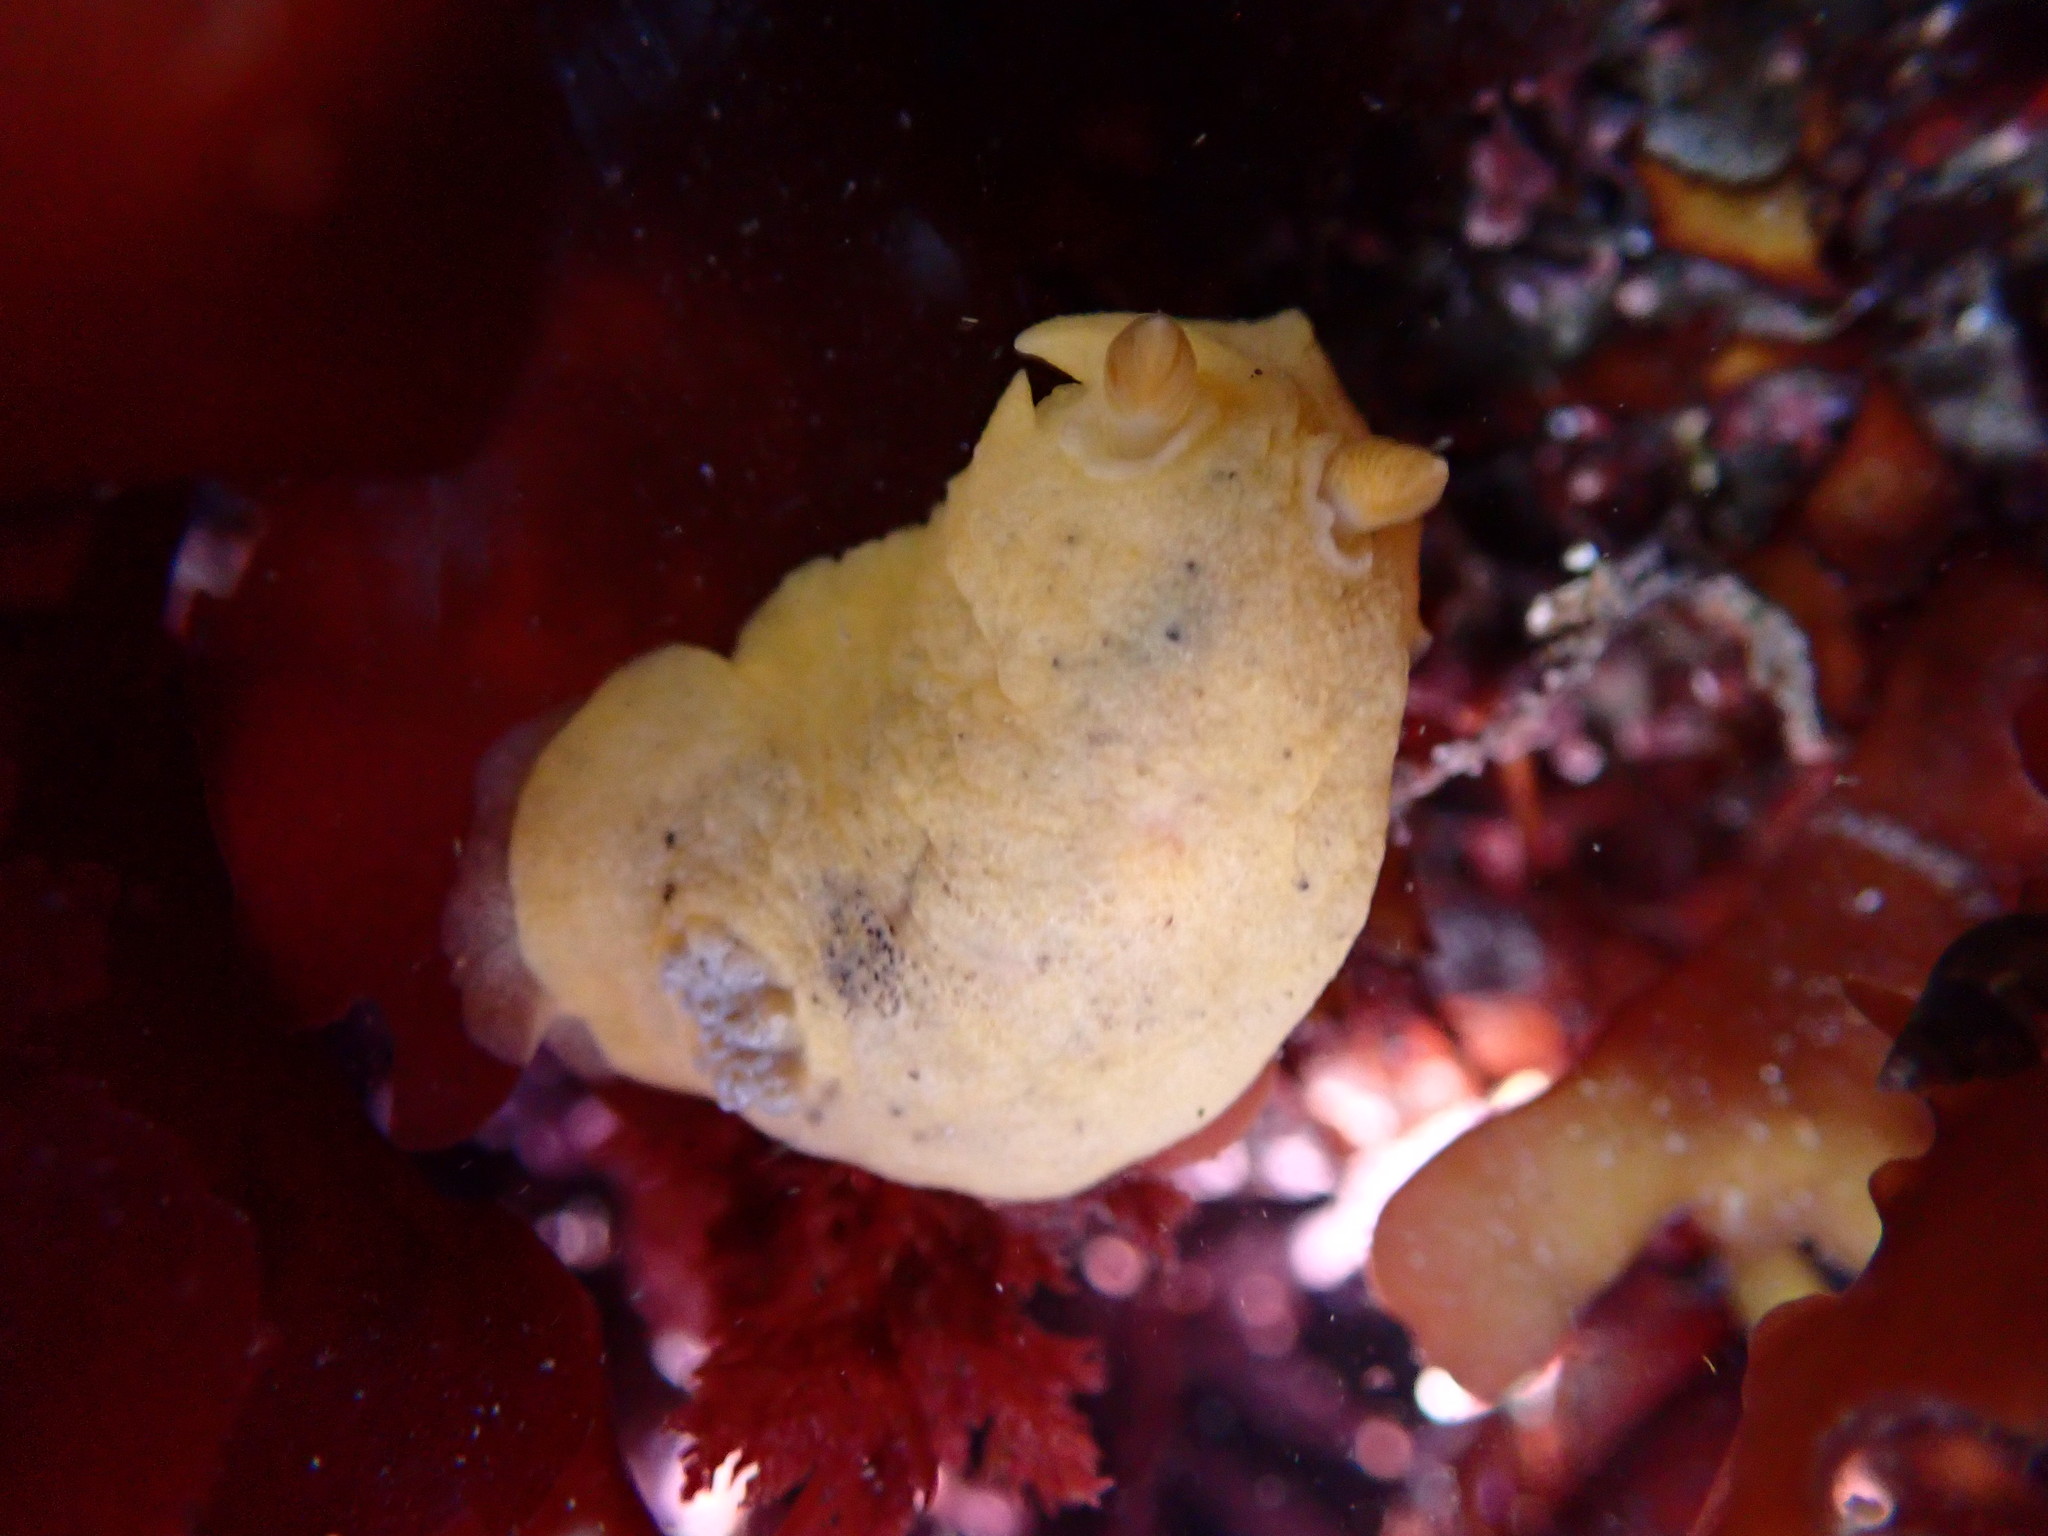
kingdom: Animalia
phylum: Mollusca
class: Gastropoda
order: Nudibranchia
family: Discodorididae
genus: Geitodoris
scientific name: Geitodoris heathi
